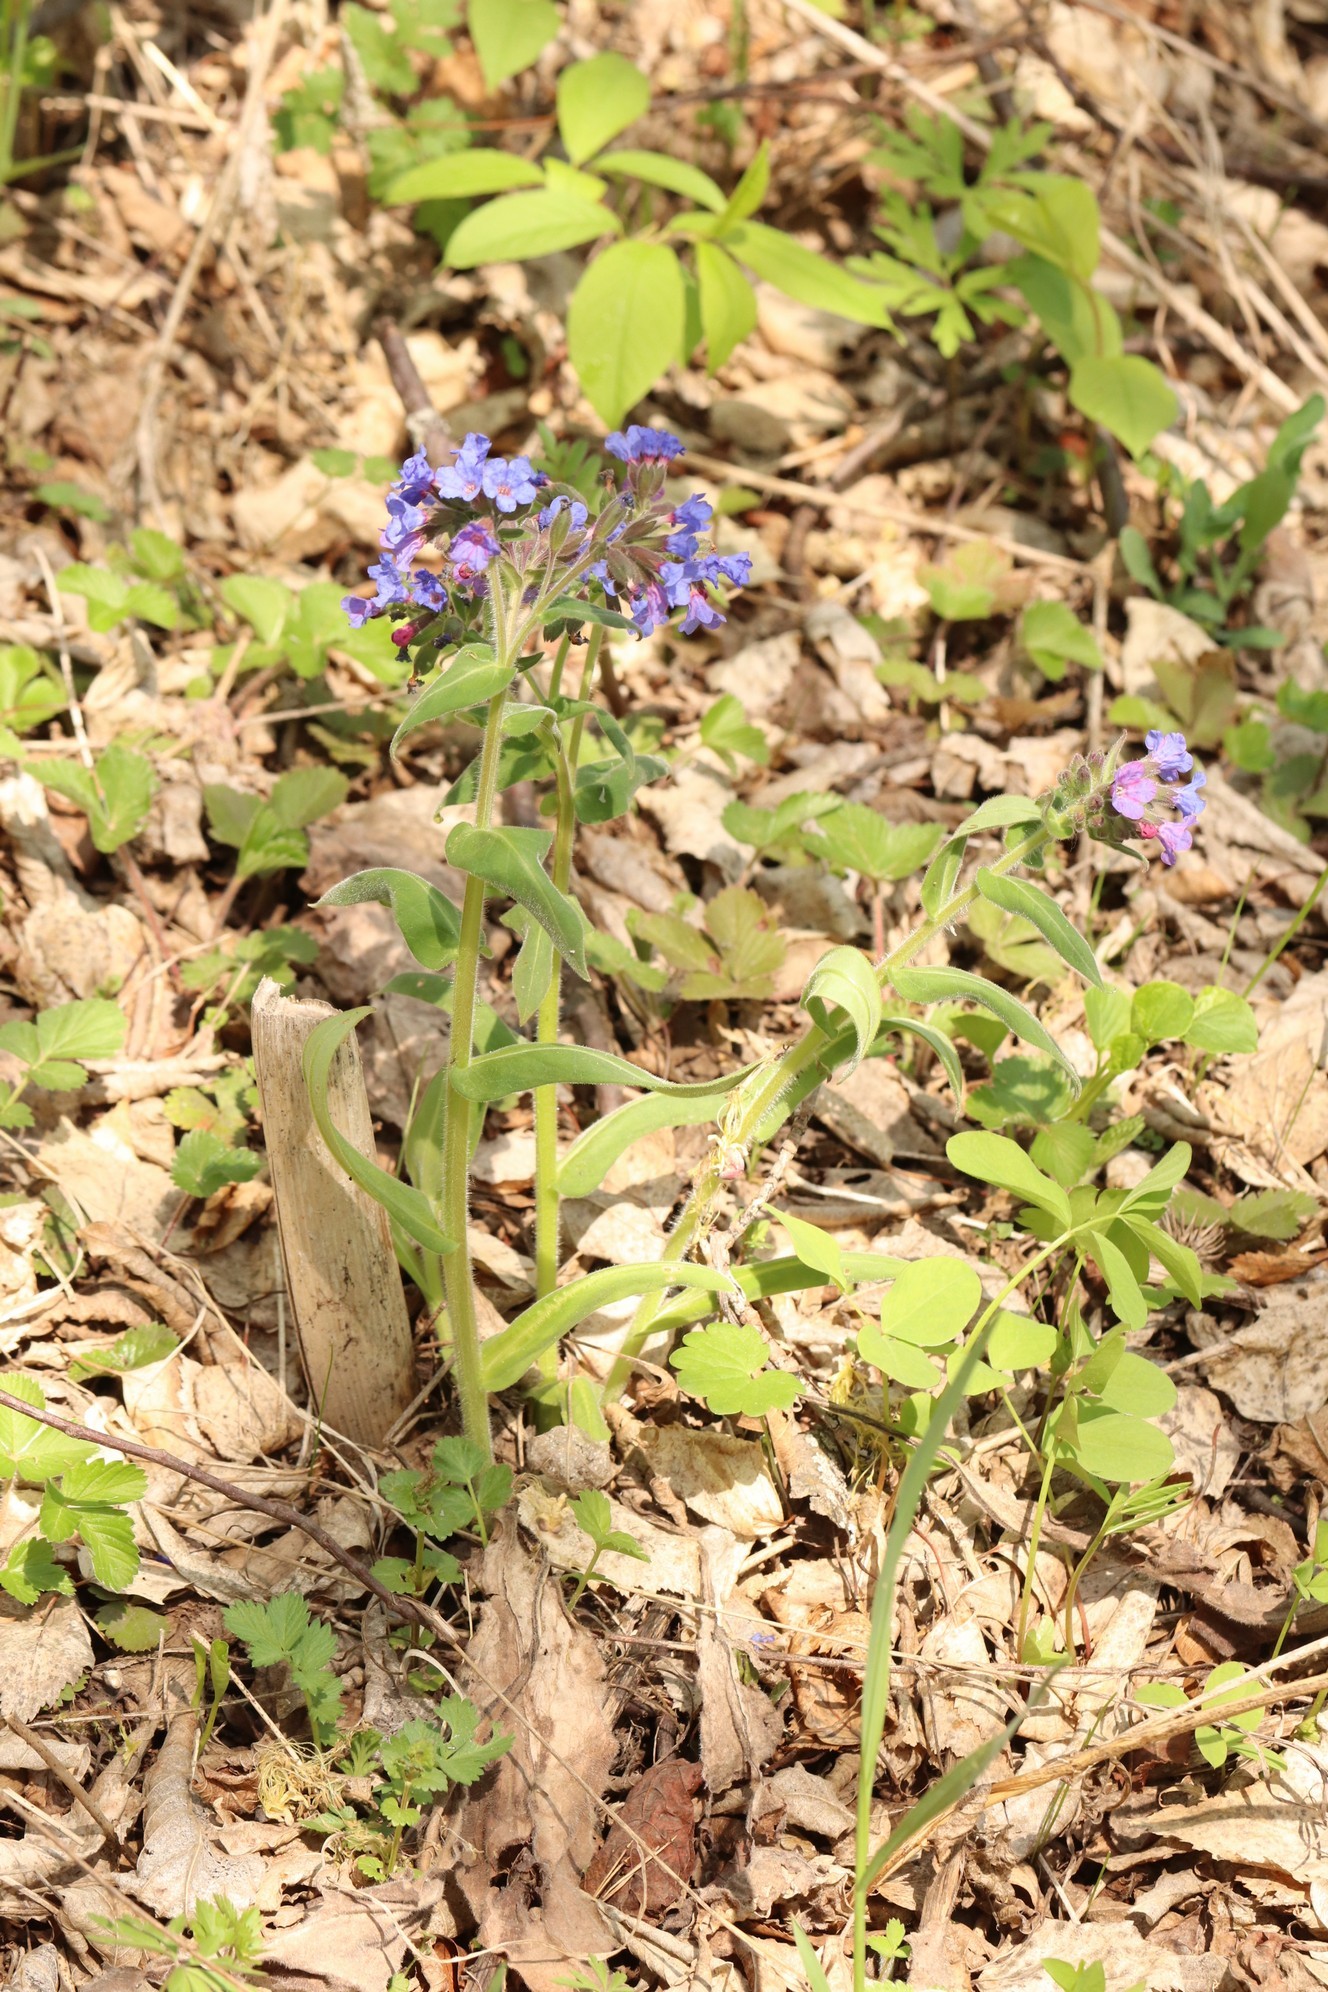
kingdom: Plantae
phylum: Tracheophyta
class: Magnoliopsida
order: Boraginales
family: Boraginaceae
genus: Pulmonaria
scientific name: Pulmonaria mollis
